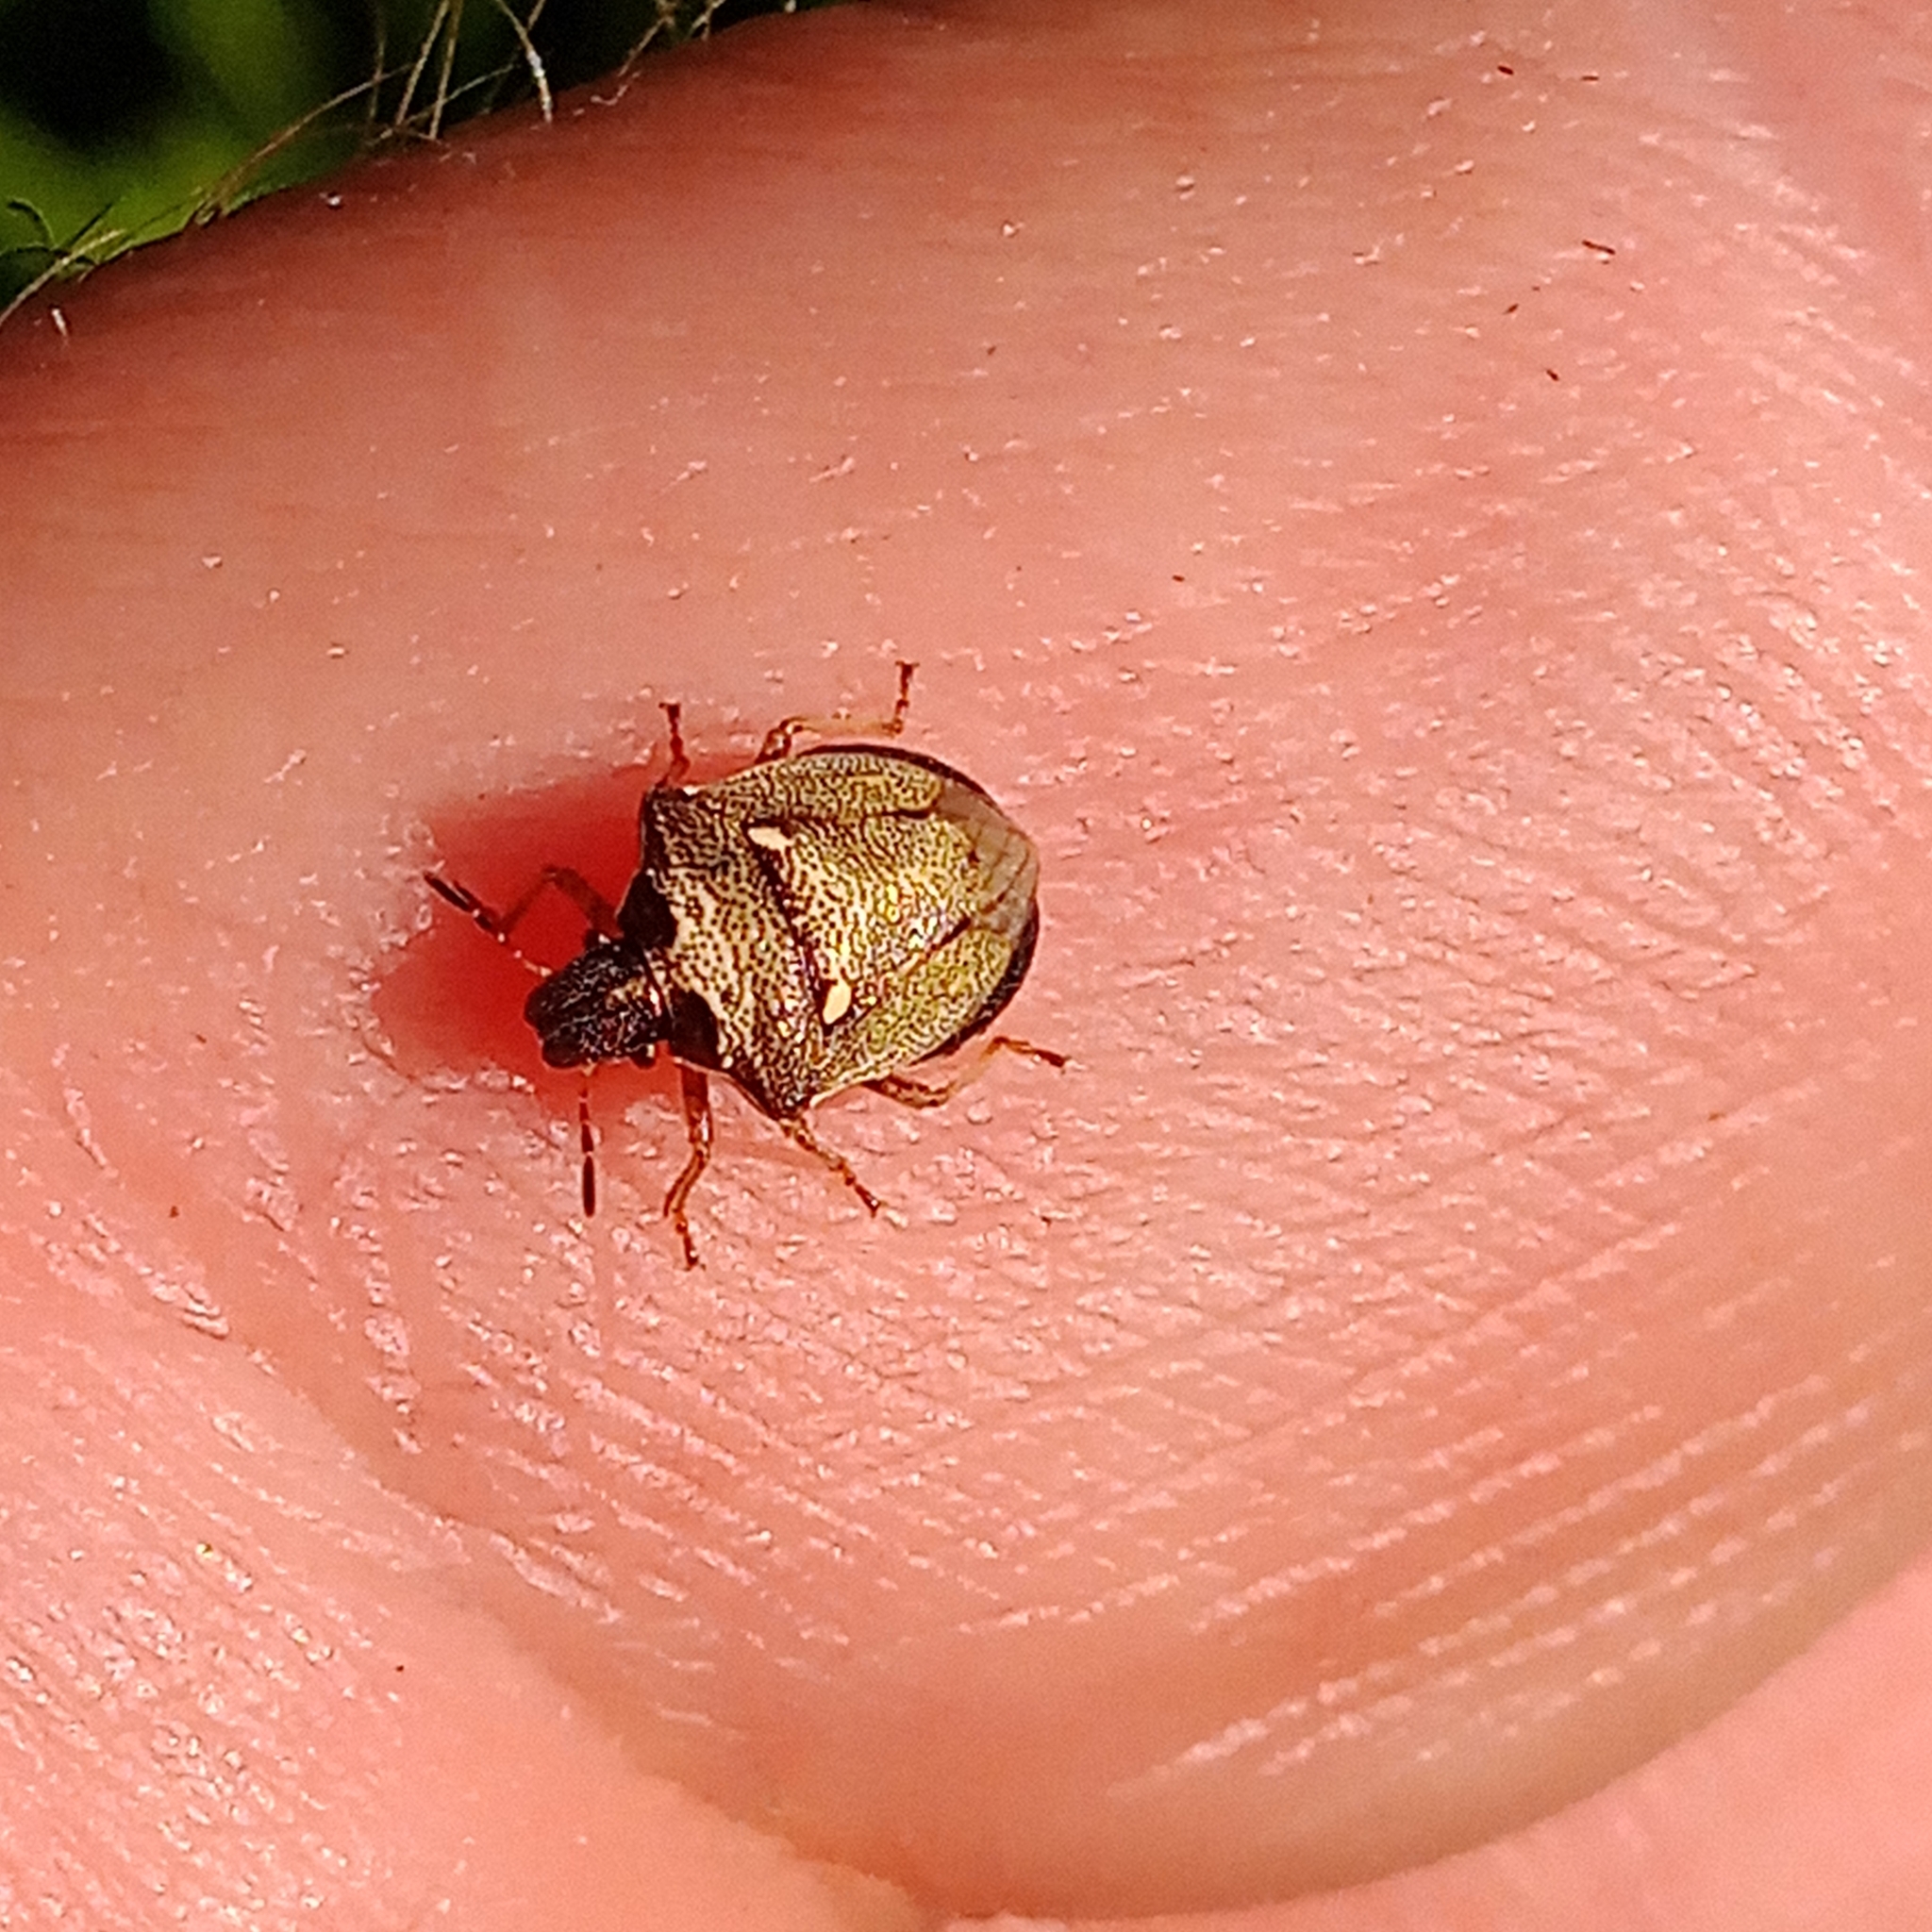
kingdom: Animalia
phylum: Arthropoda
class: Insecta
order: Hemiptera
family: Pentatomidae
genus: Eysarcoris
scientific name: Eysarcoris aeneus
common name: New forest shieldbug
